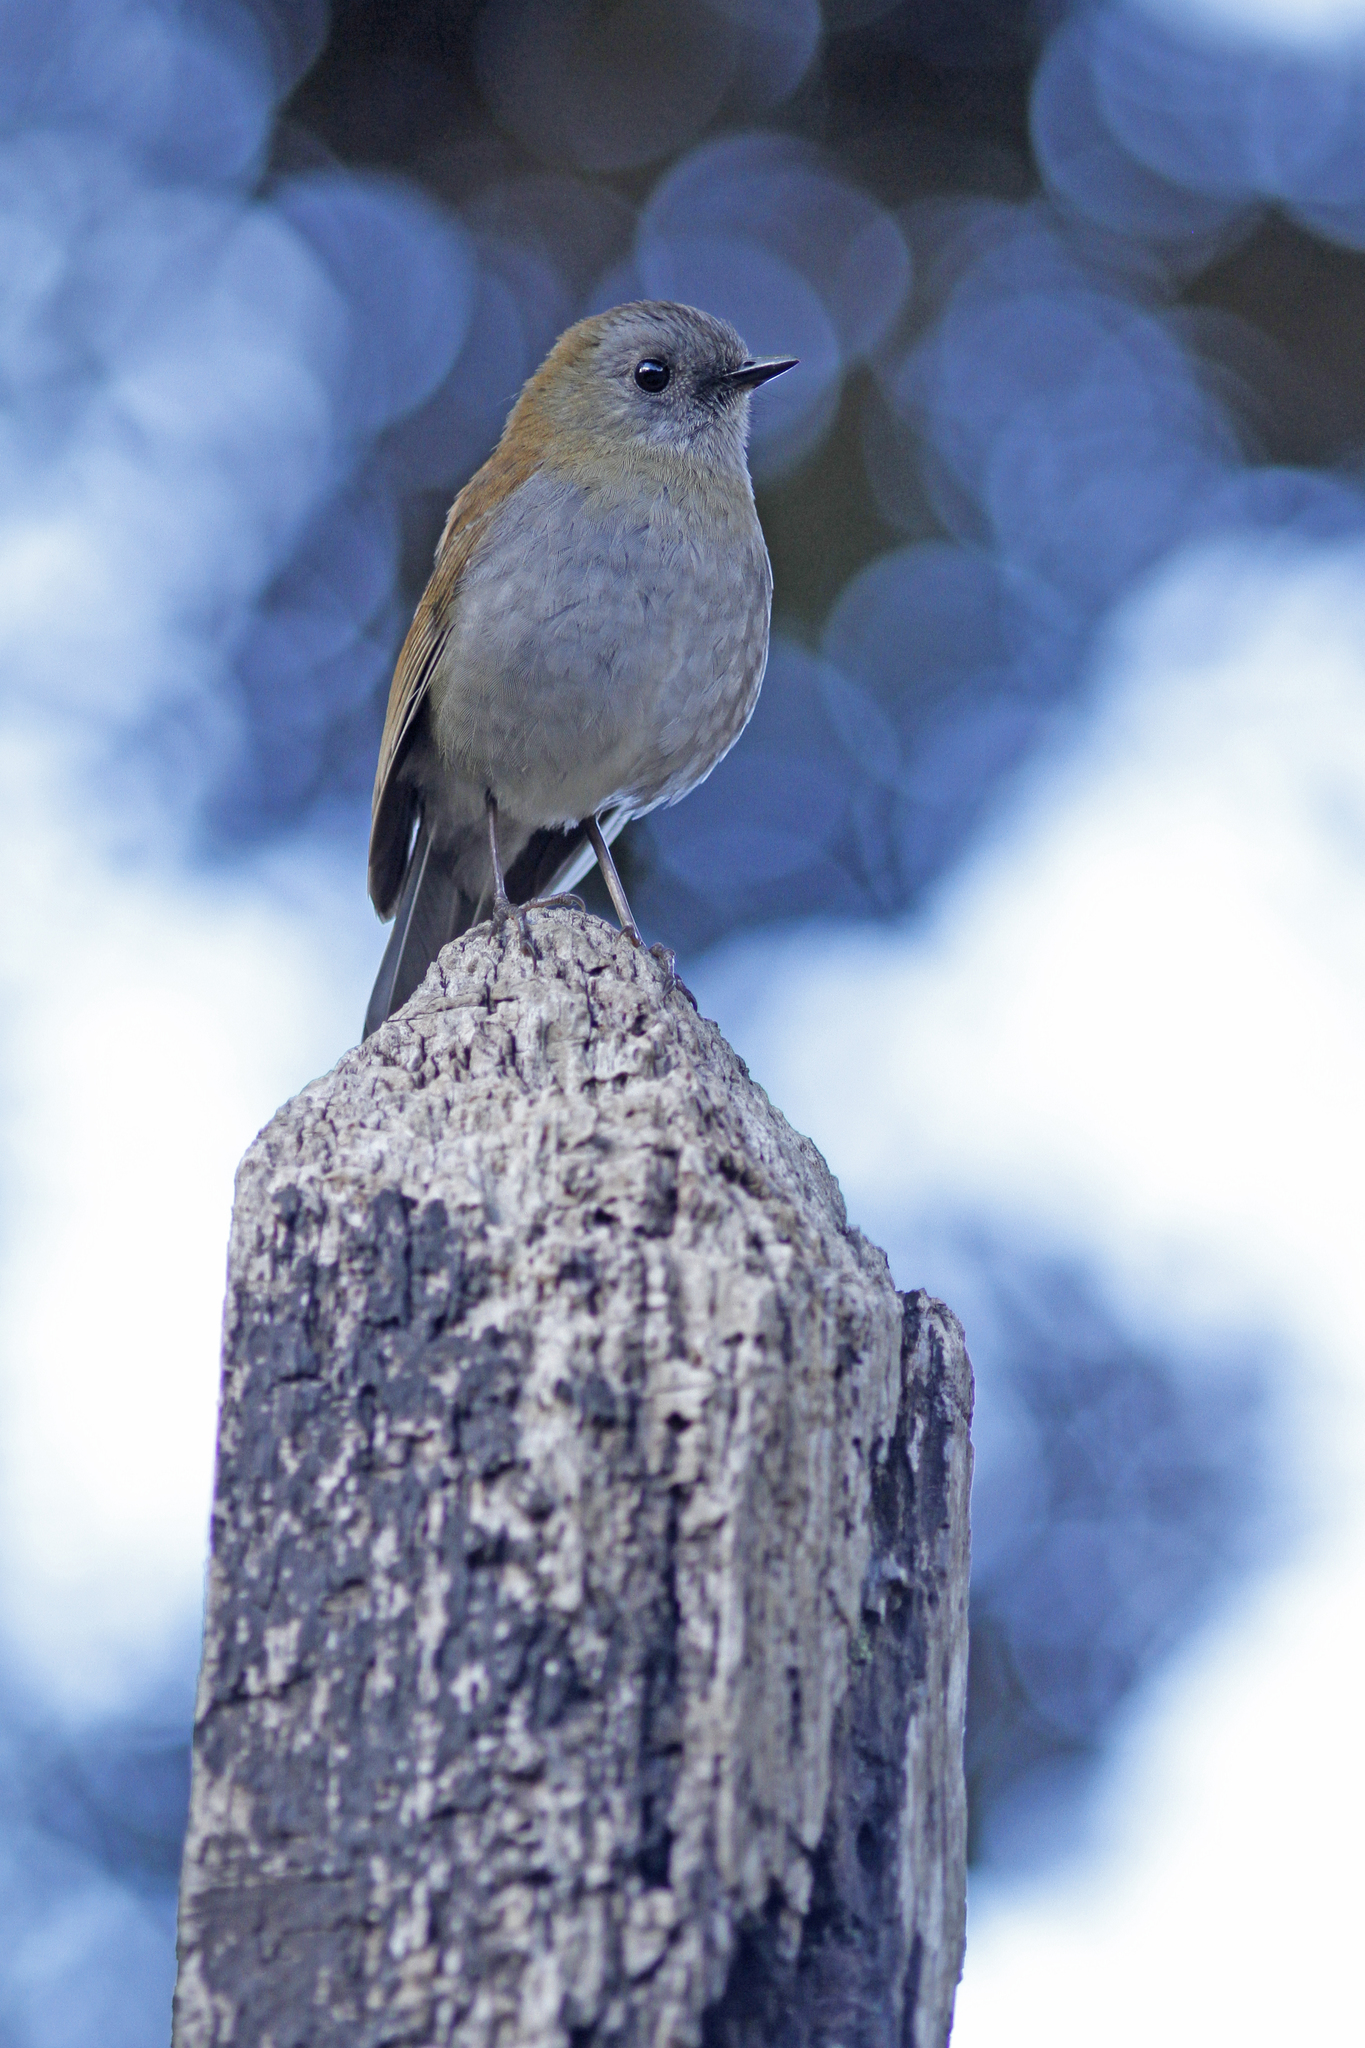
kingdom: Animalia
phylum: Chordata
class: Aves
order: Passeriformes
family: Turdidae
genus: Catharus
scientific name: Catharus gracilirostris
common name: Black-billed nightingale-thrush
